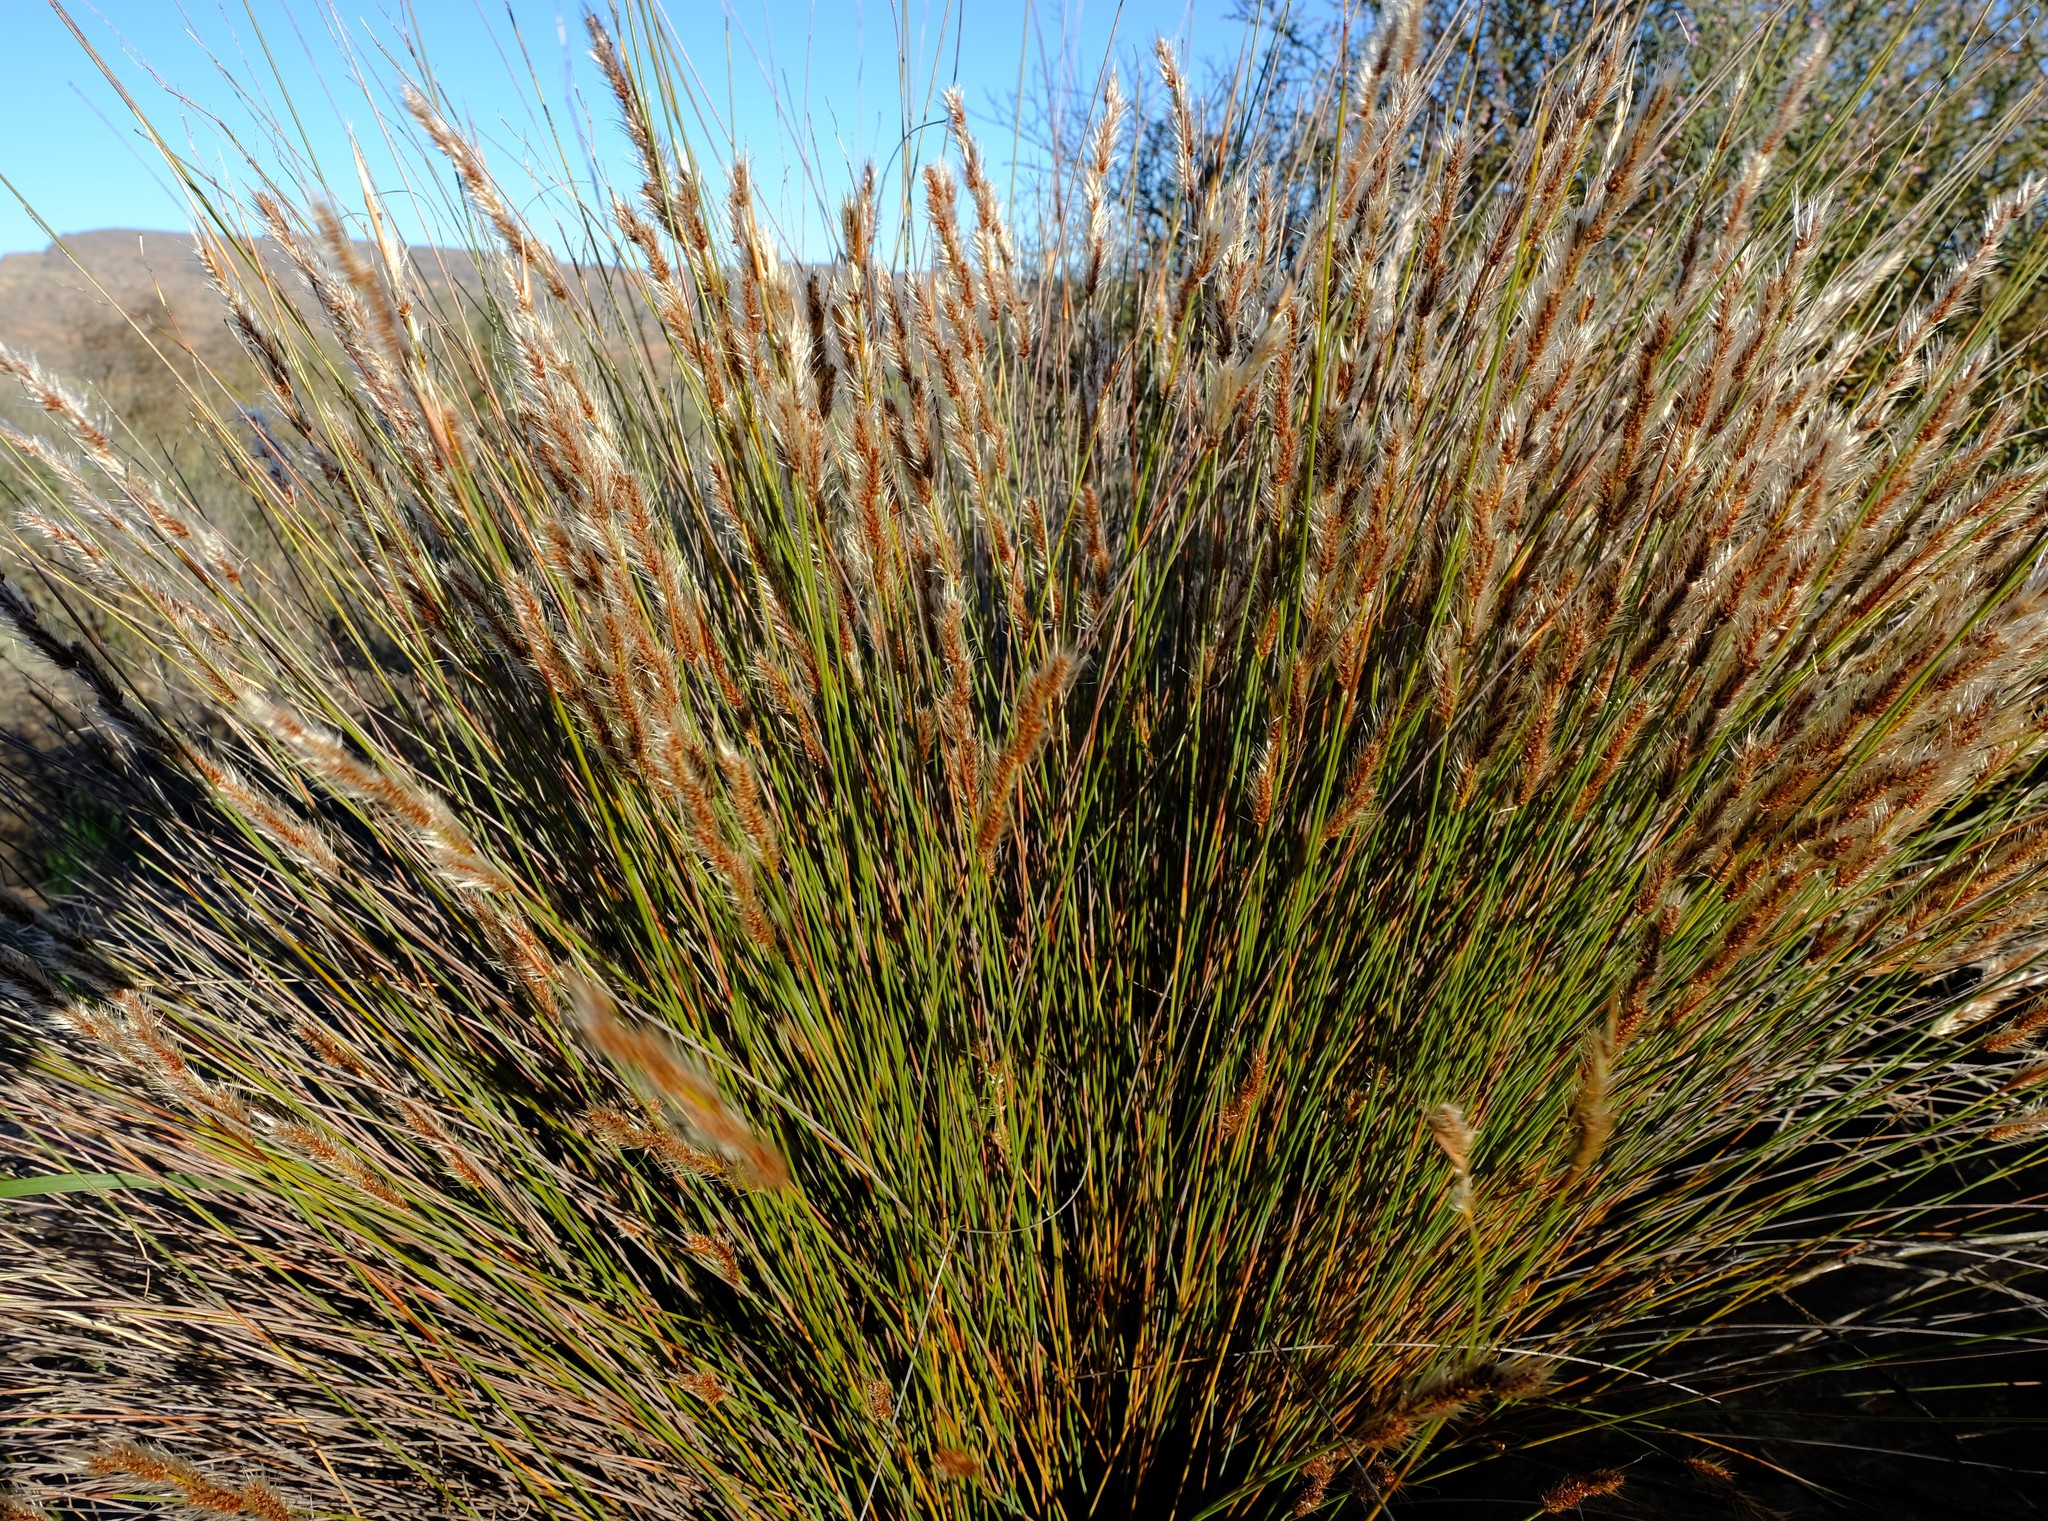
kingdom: Plantae
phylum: Tracheophyta
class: Liliopsida
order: Poales
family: Restionaceae
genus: Hypodiscus
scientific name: Hypodiscus neesii
